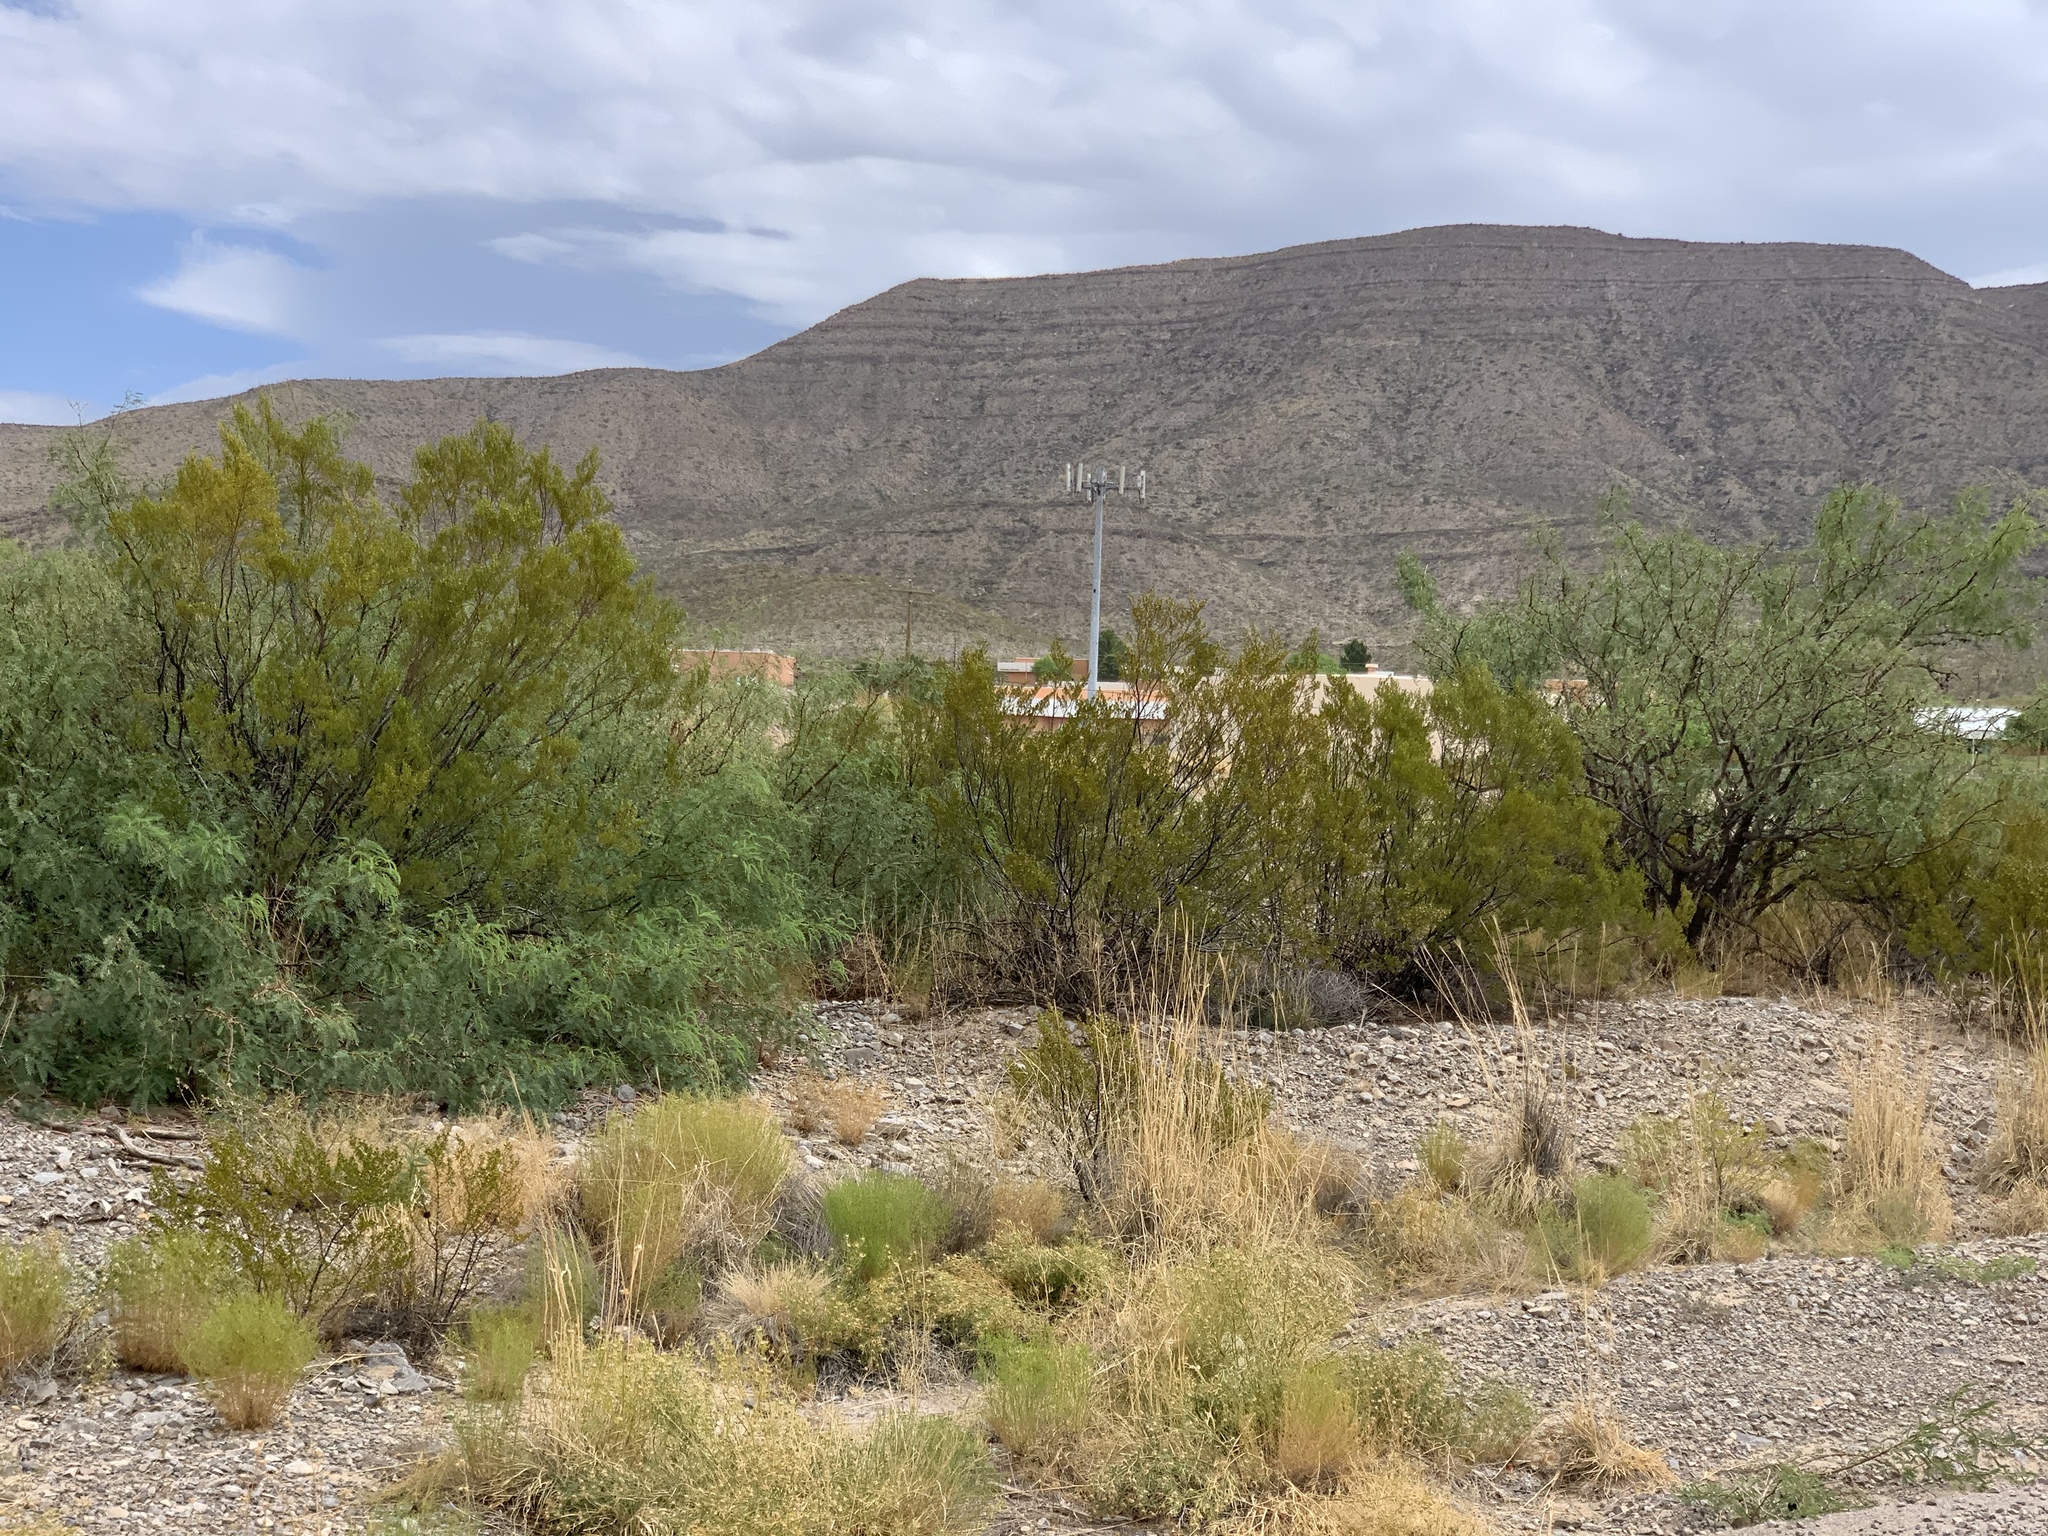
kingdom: Plantae
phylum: Tracheophyta
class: Magnoliopsida
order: Zygophyllales
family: Zygophyllaceae
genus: Larrea
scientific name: Larrea tridentata
